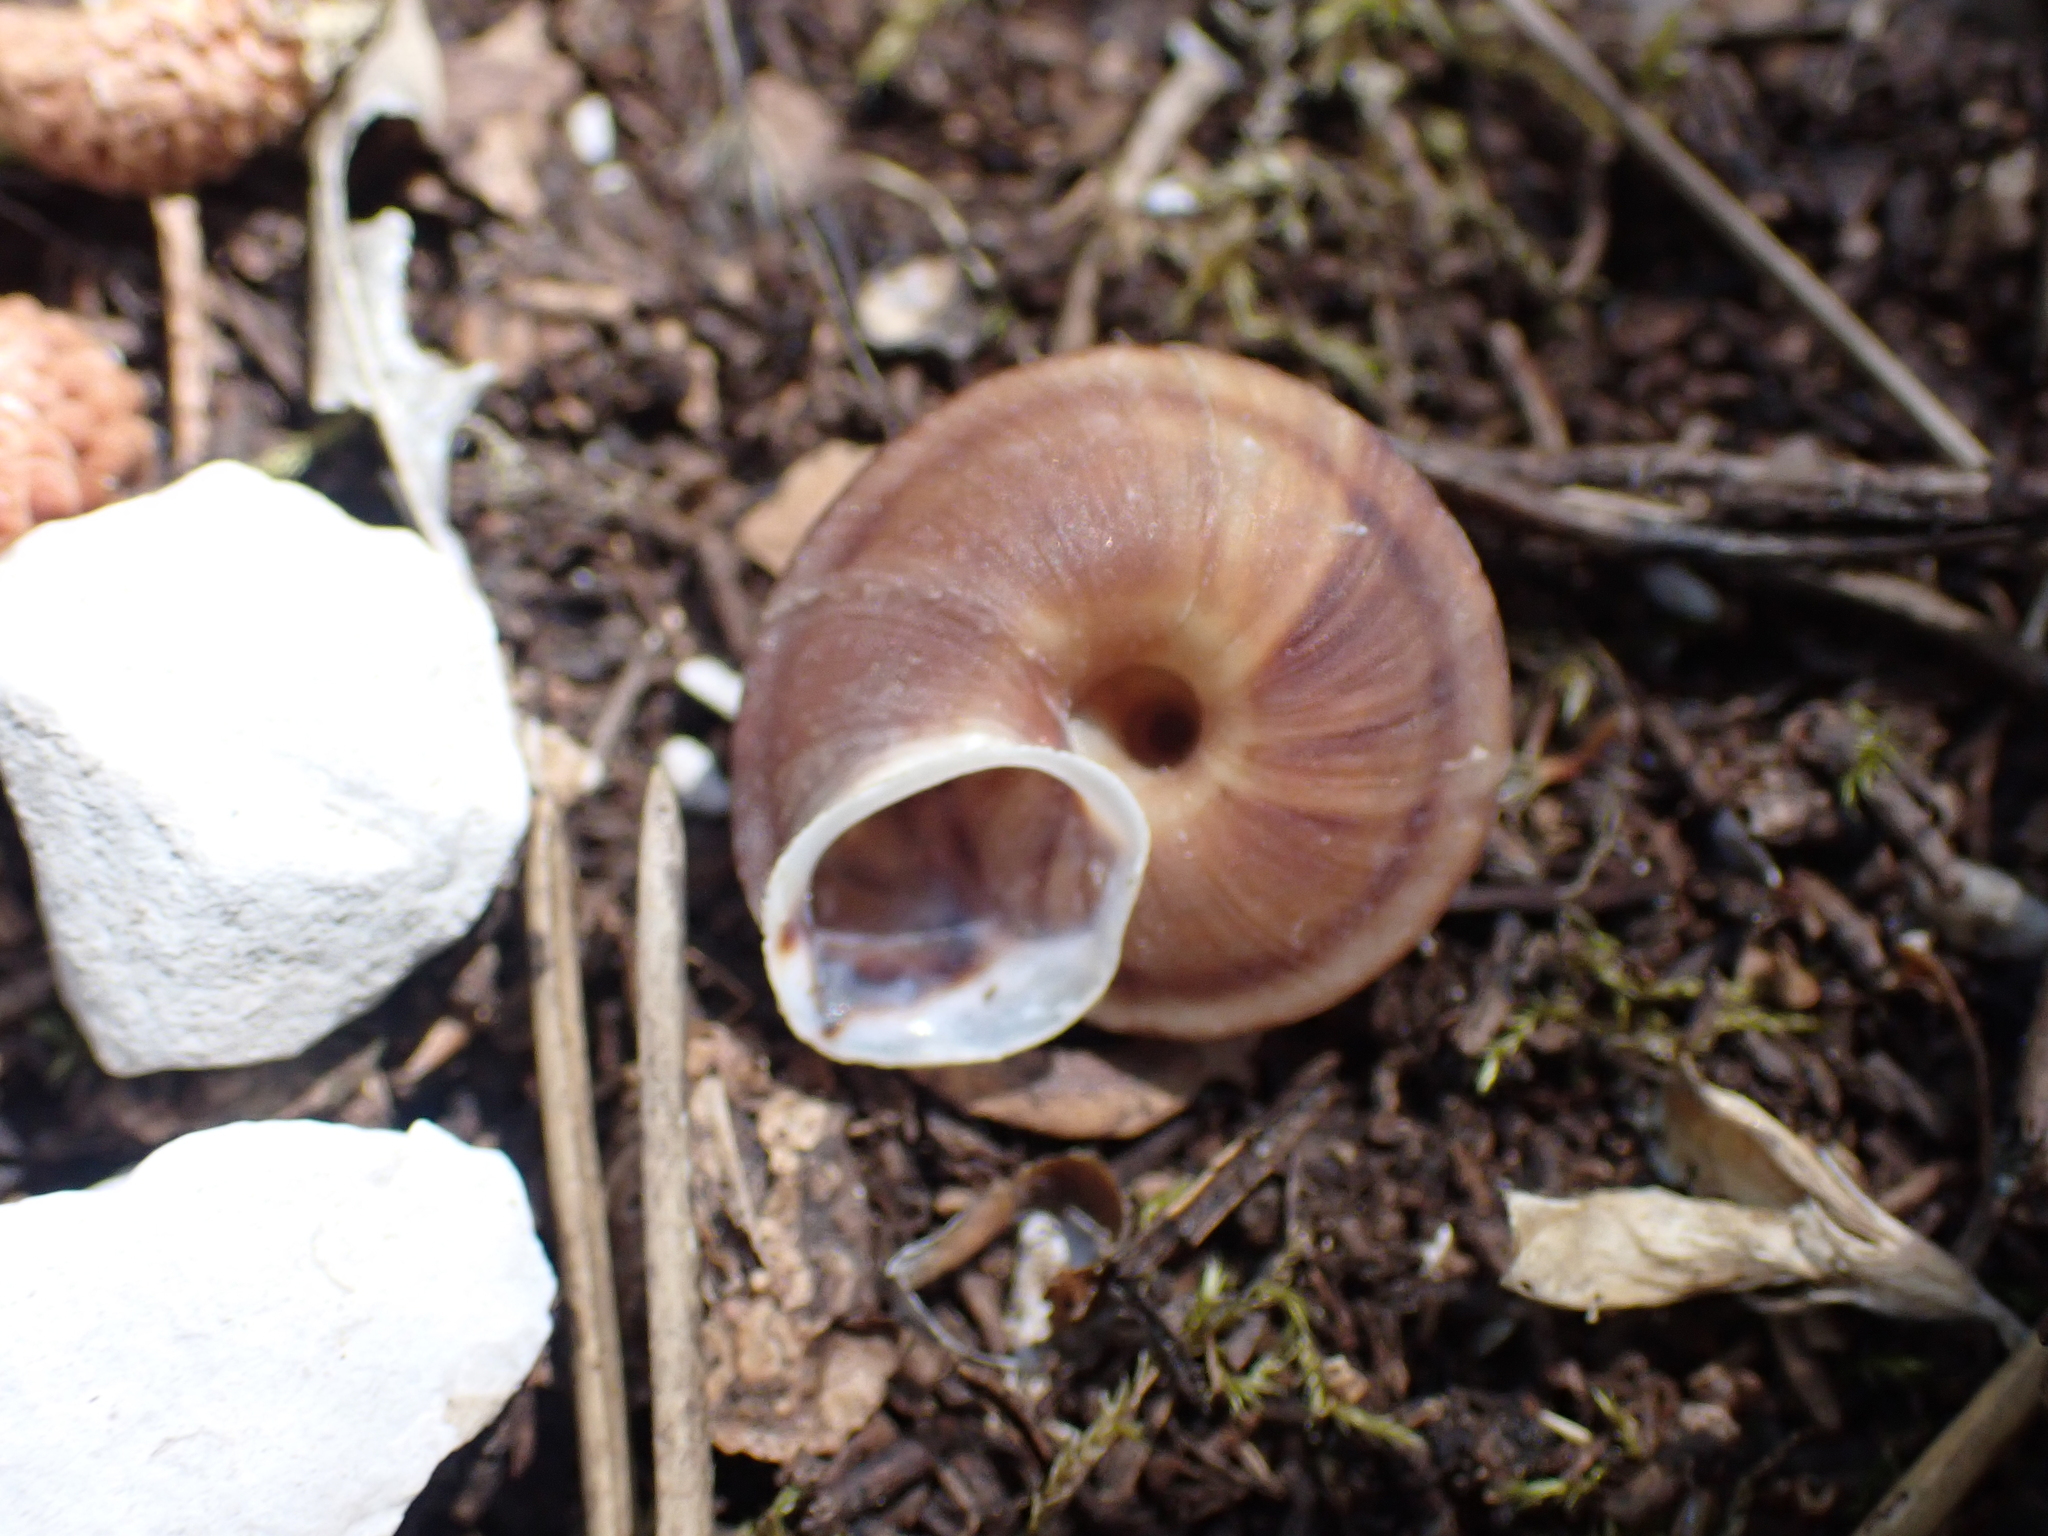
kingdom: Animalia
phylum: Mollusca
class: Gastropoda
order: Stylommatophora
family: Helicidae
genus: Helicigona
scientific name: Helicigona lapicida
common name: Lapidary snail
